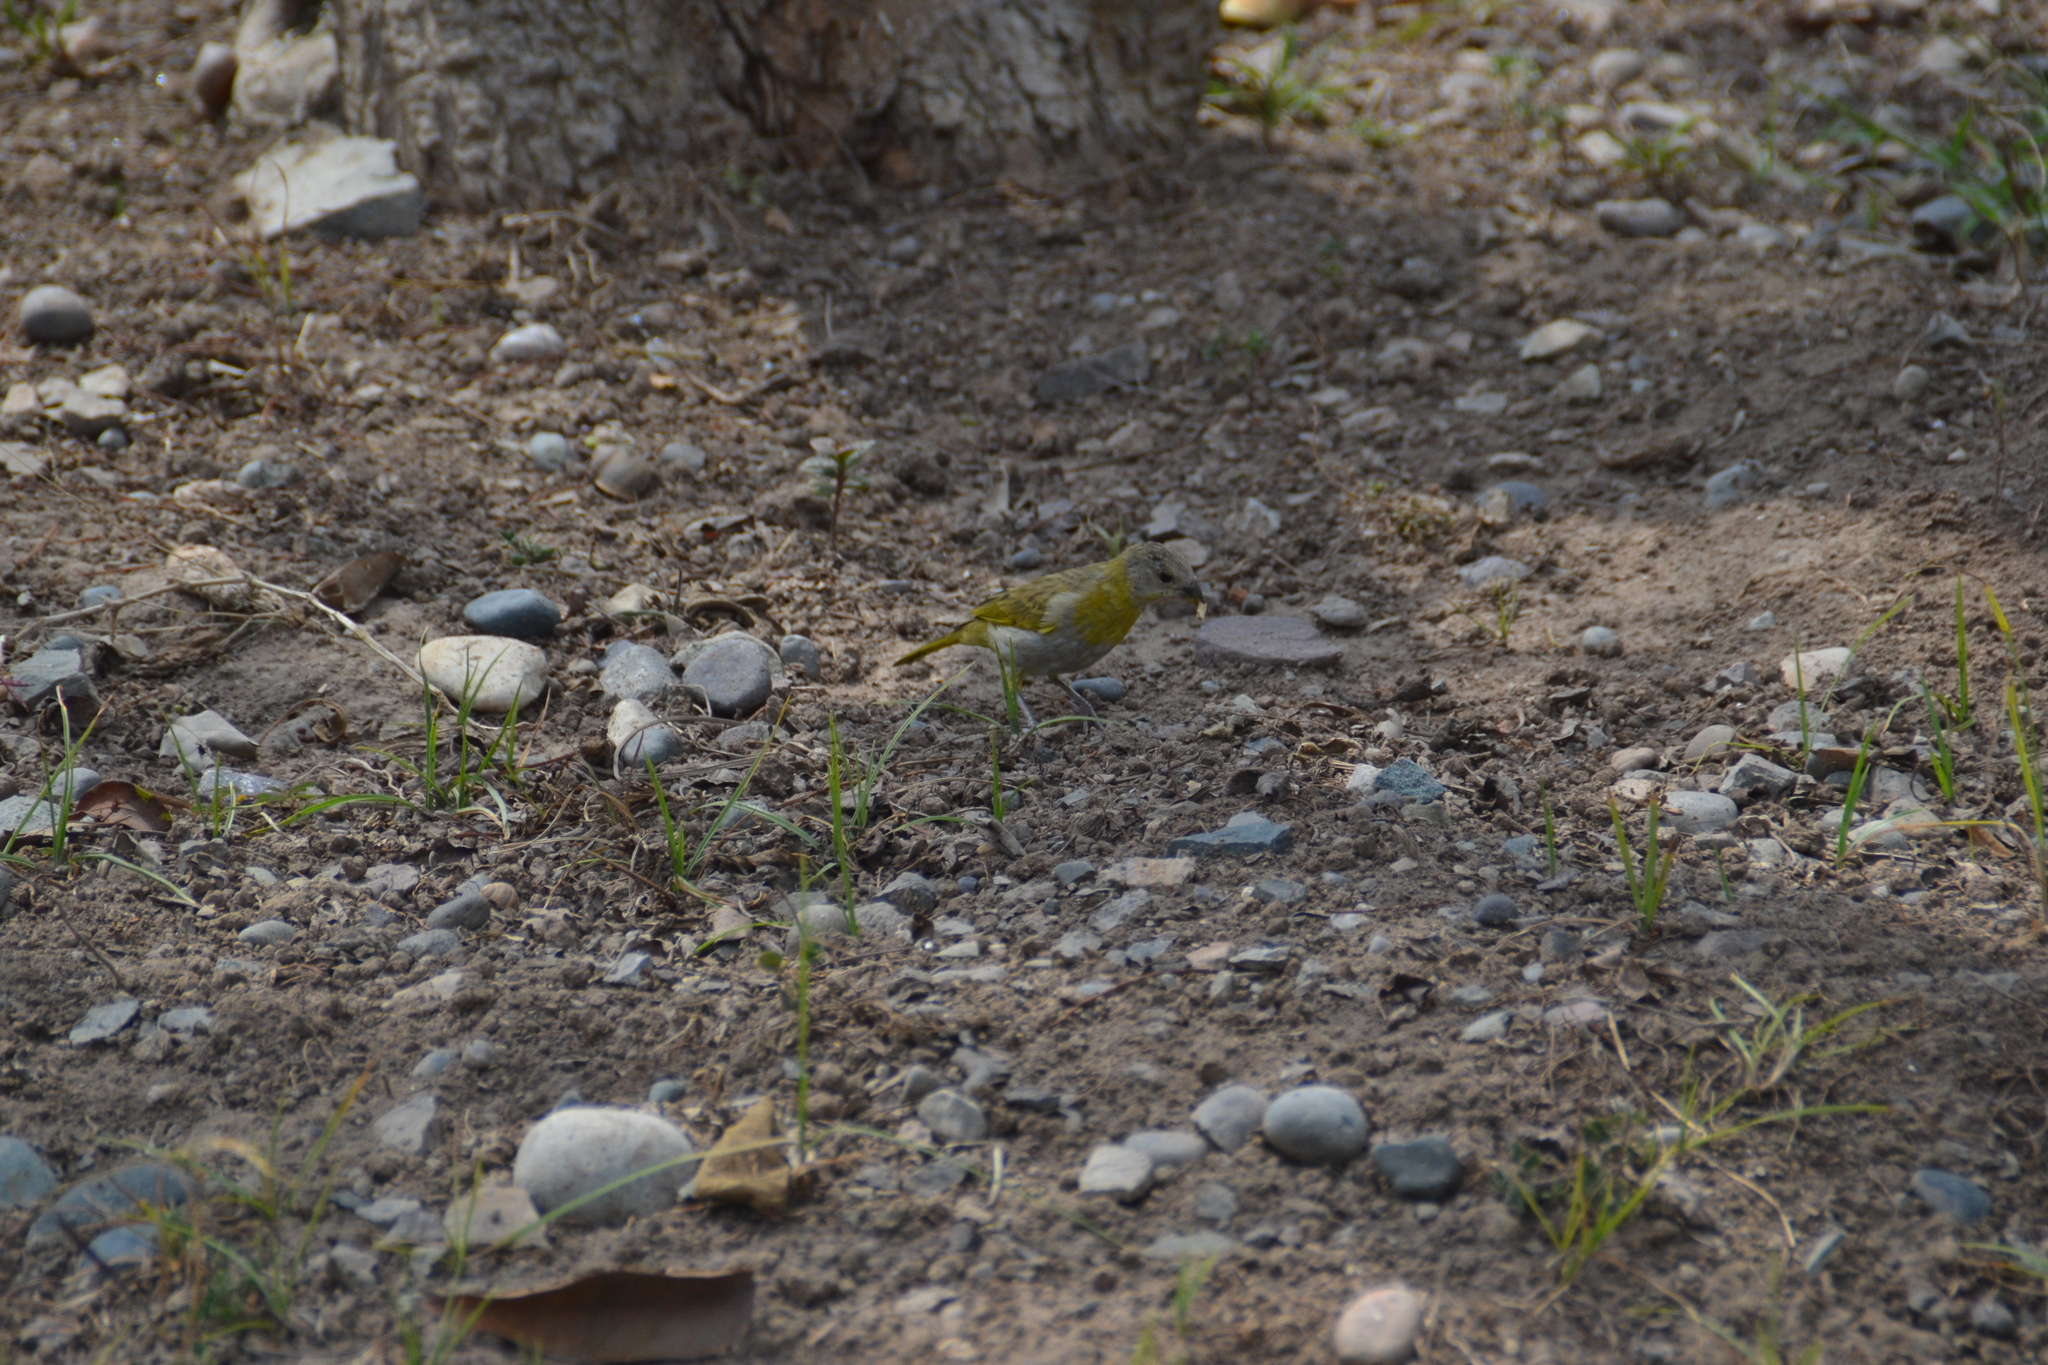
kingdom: Animalia
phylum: Chordata
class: Aves
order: Passeriformes
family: Thraupidae
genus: Sicalis
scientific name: Sicalis flaveola
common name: Saffron finch
